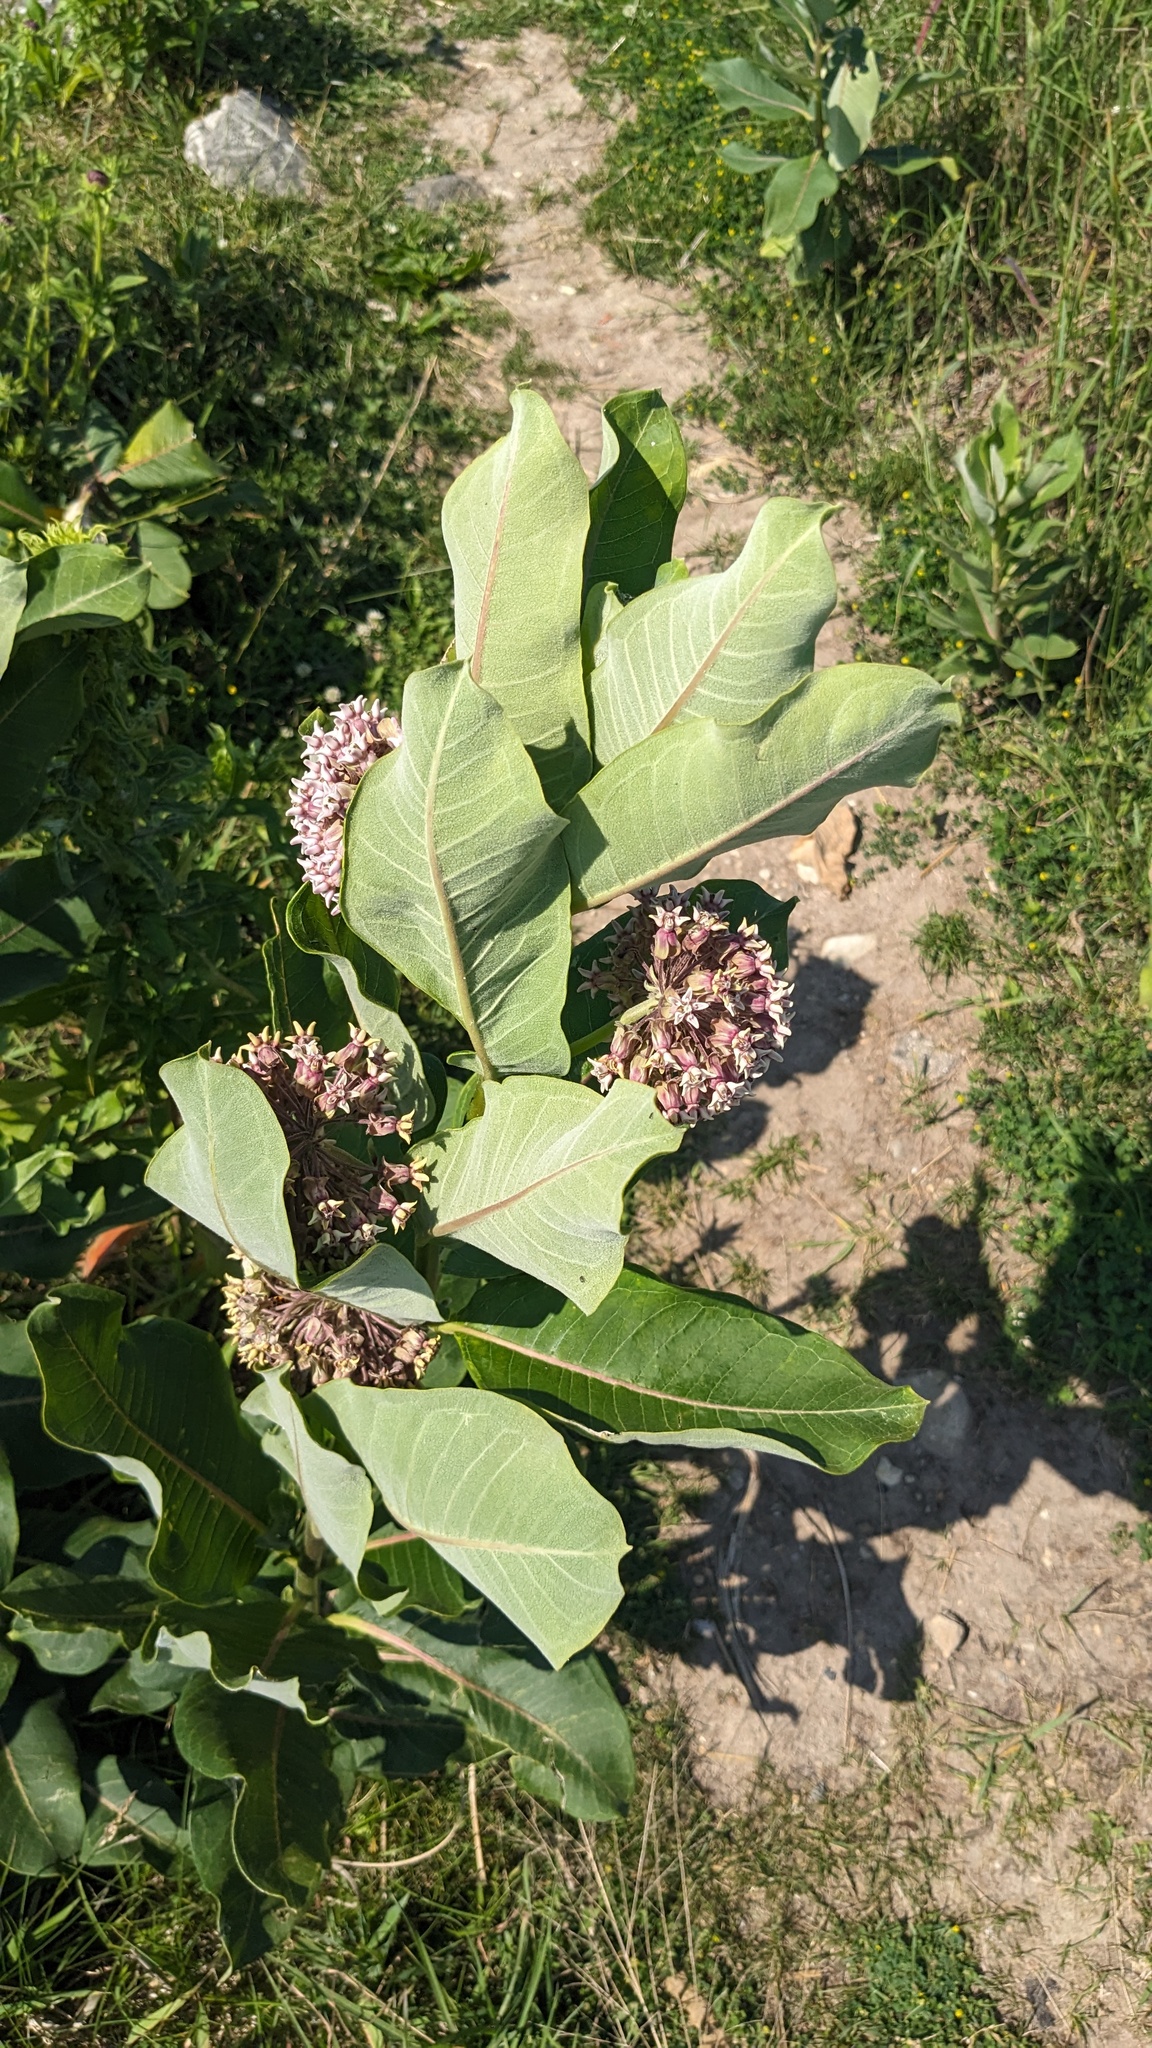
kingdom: Plantae
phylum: Tracheophyta
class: Magnoliopsida
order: Gentianales
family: Apocynaceae
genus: Asclepias
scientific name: Asclepias syriaca
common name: Common milkweed
